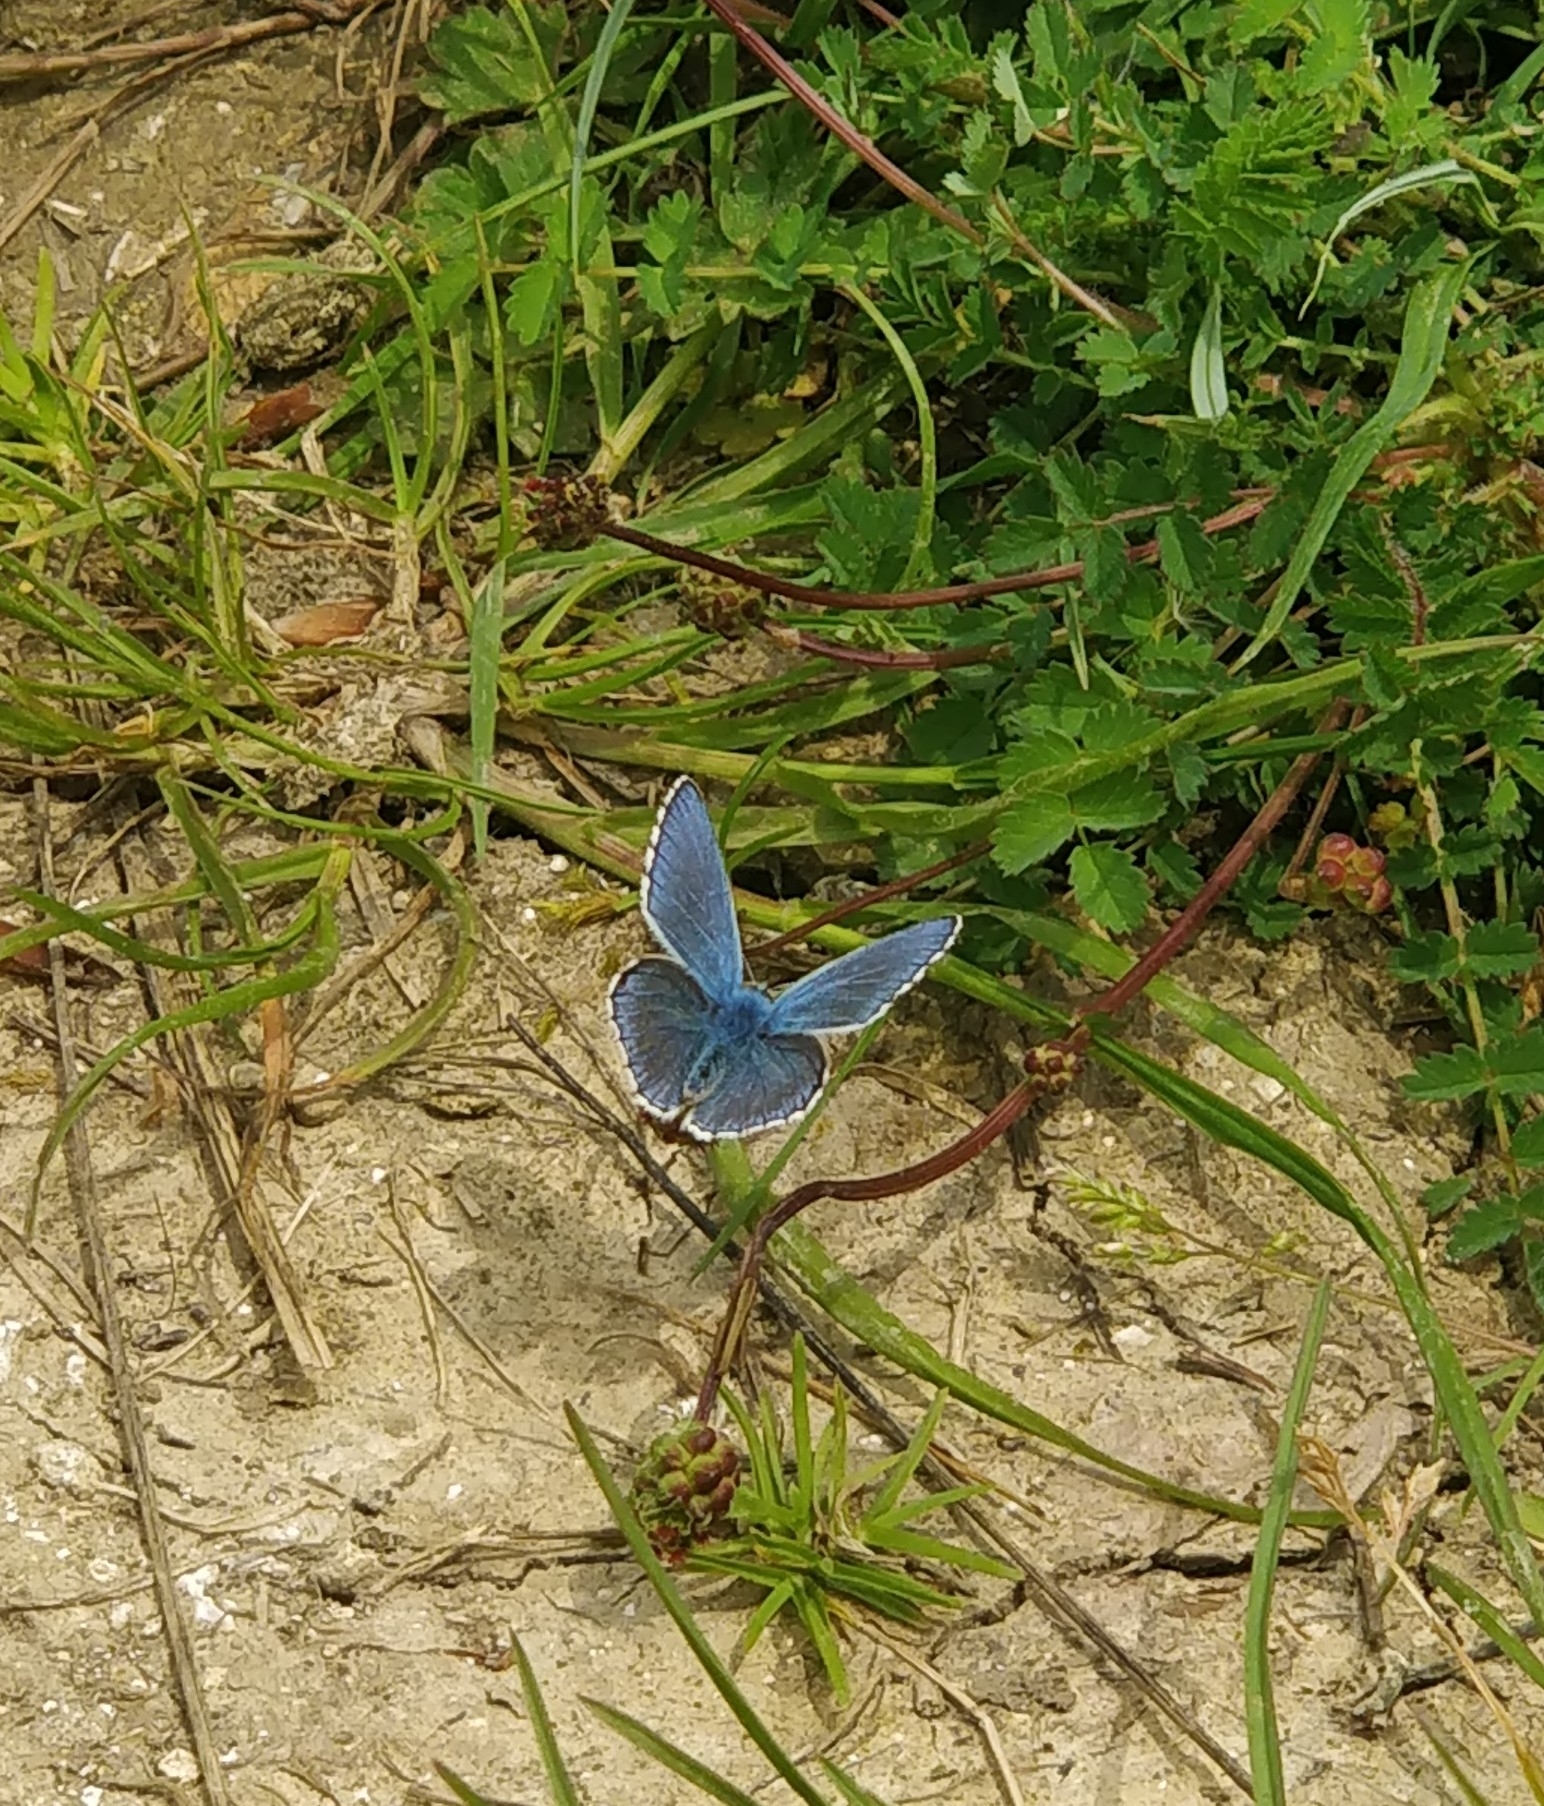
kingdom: Animalia
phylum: Arthropoda
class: Insecta
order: Lepidoptera
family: Lycaenidae
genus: Lysandra
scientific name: Lysandra bellargus
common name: Adonis blue
